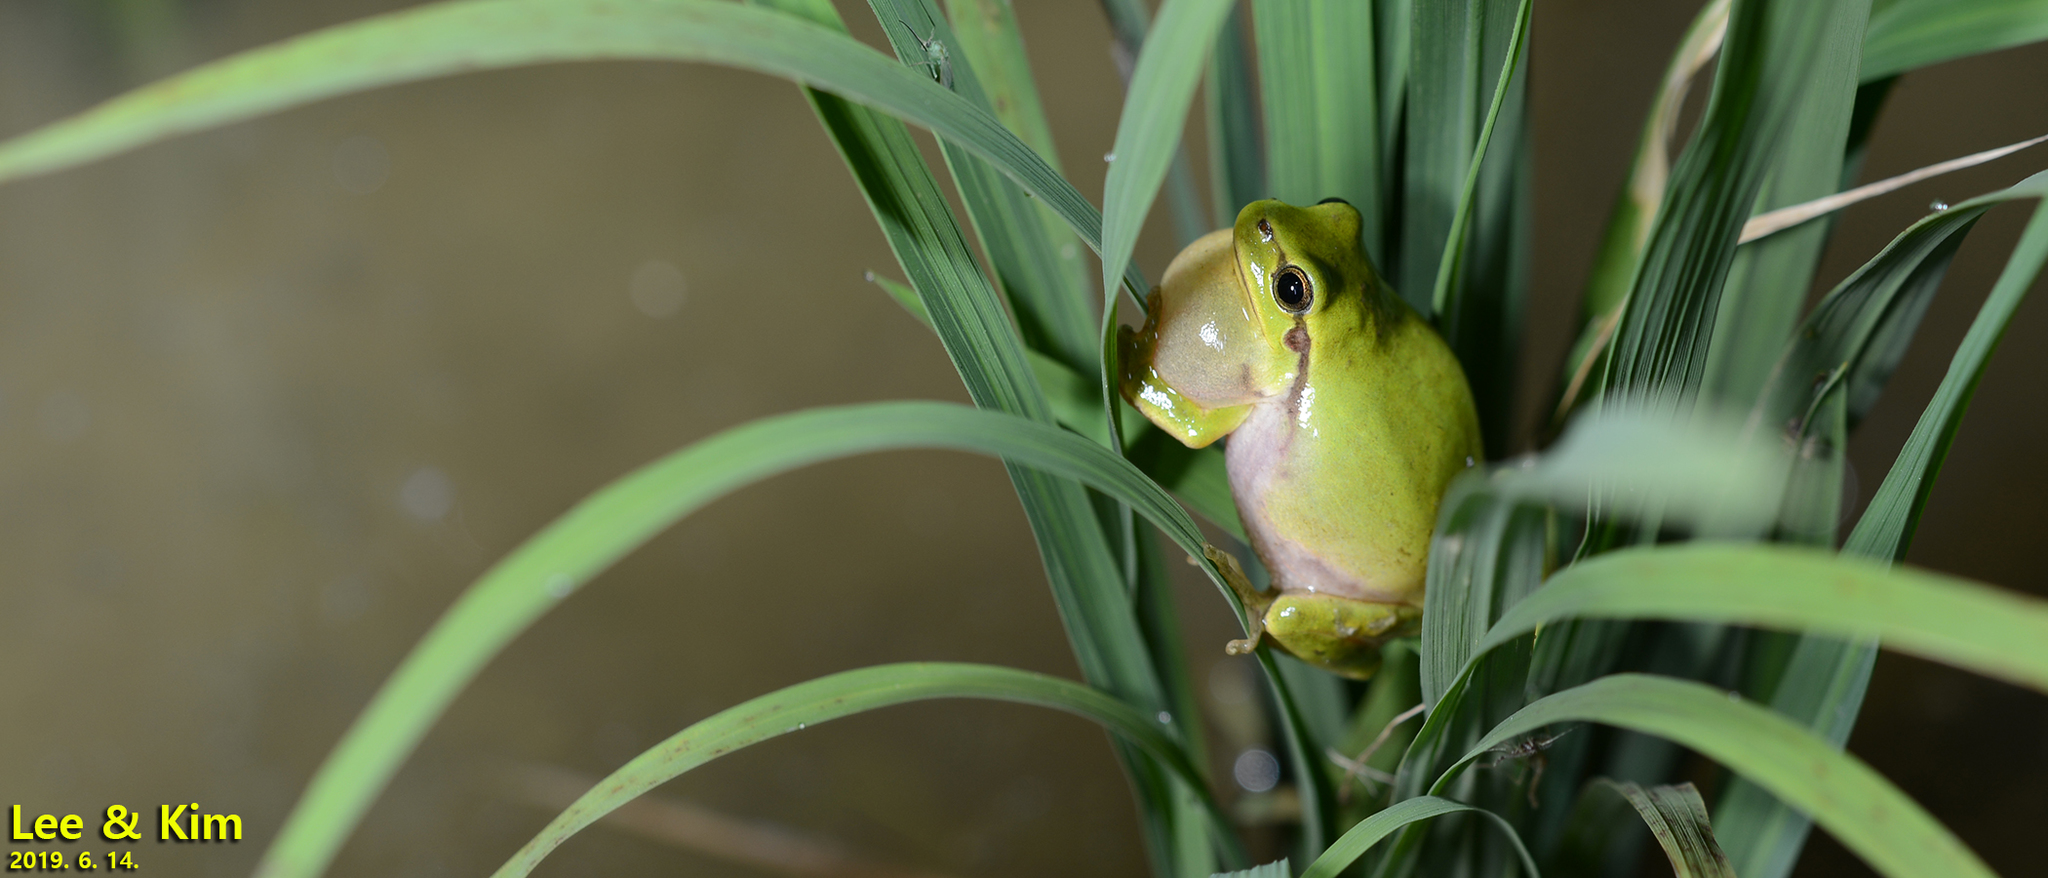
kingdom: Animalia
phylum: Chordata
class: Amphibia
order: Anura
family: Hylidae
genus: Dryophytes
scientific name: Dryophytes immaculatus
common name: North china treefrog
